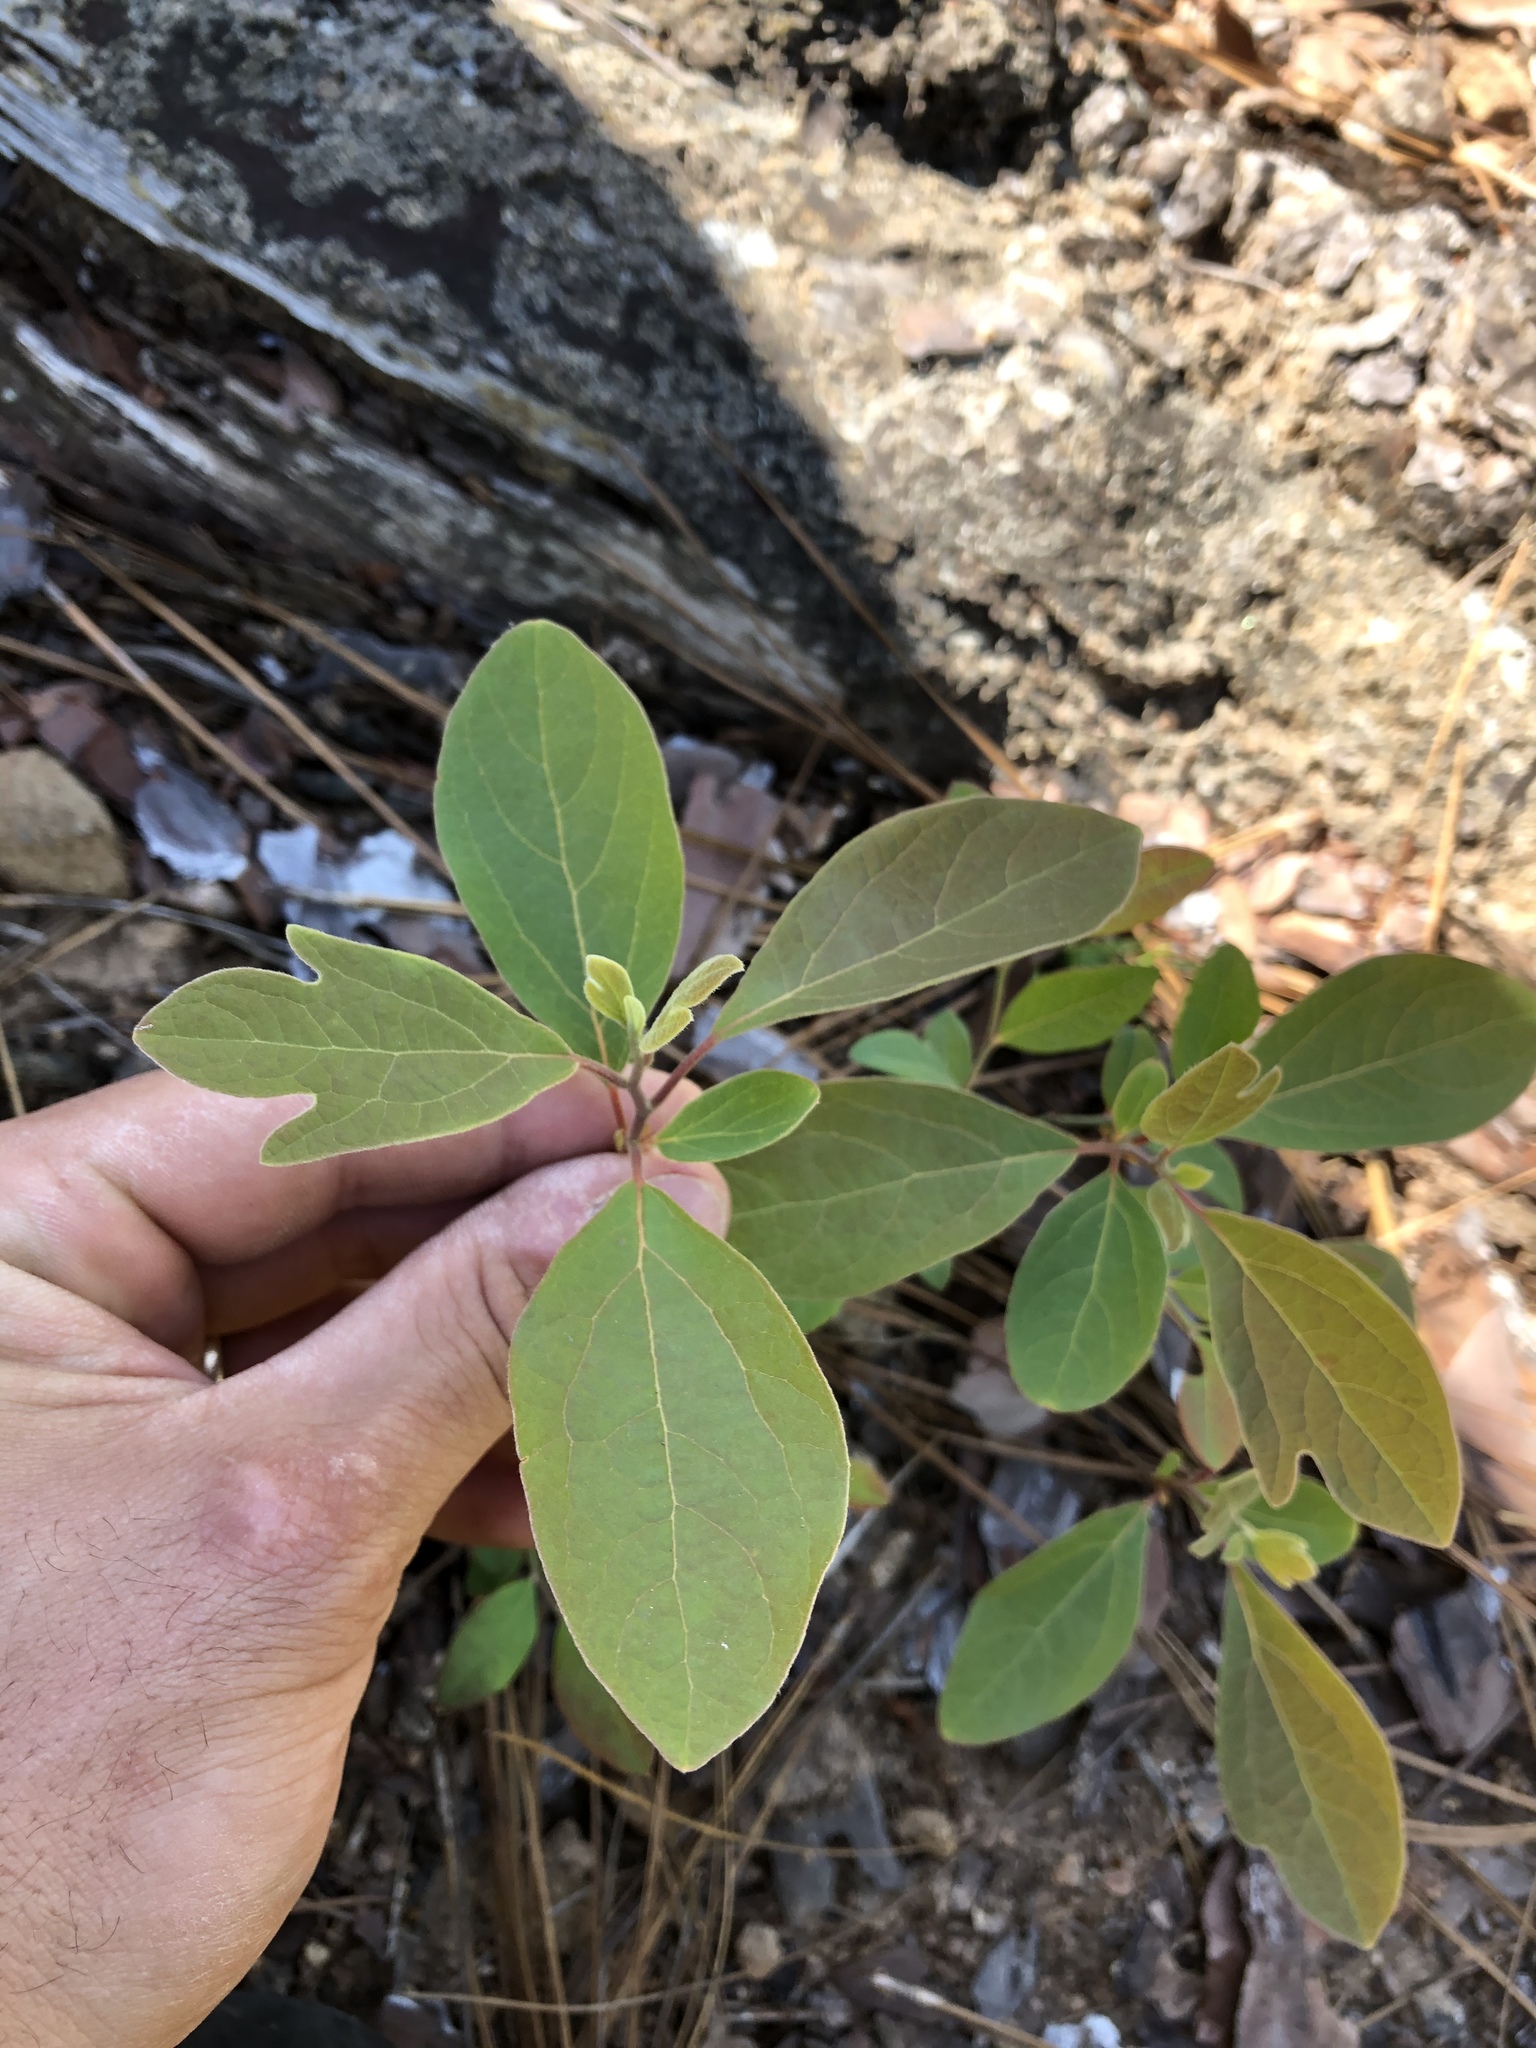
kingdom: Plantae
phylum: Tracheophyta
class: Magnoliopsida
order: Laurales
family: Lauraceae
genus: Sassafras
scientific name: Sassafras albidum
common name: Sassafras
